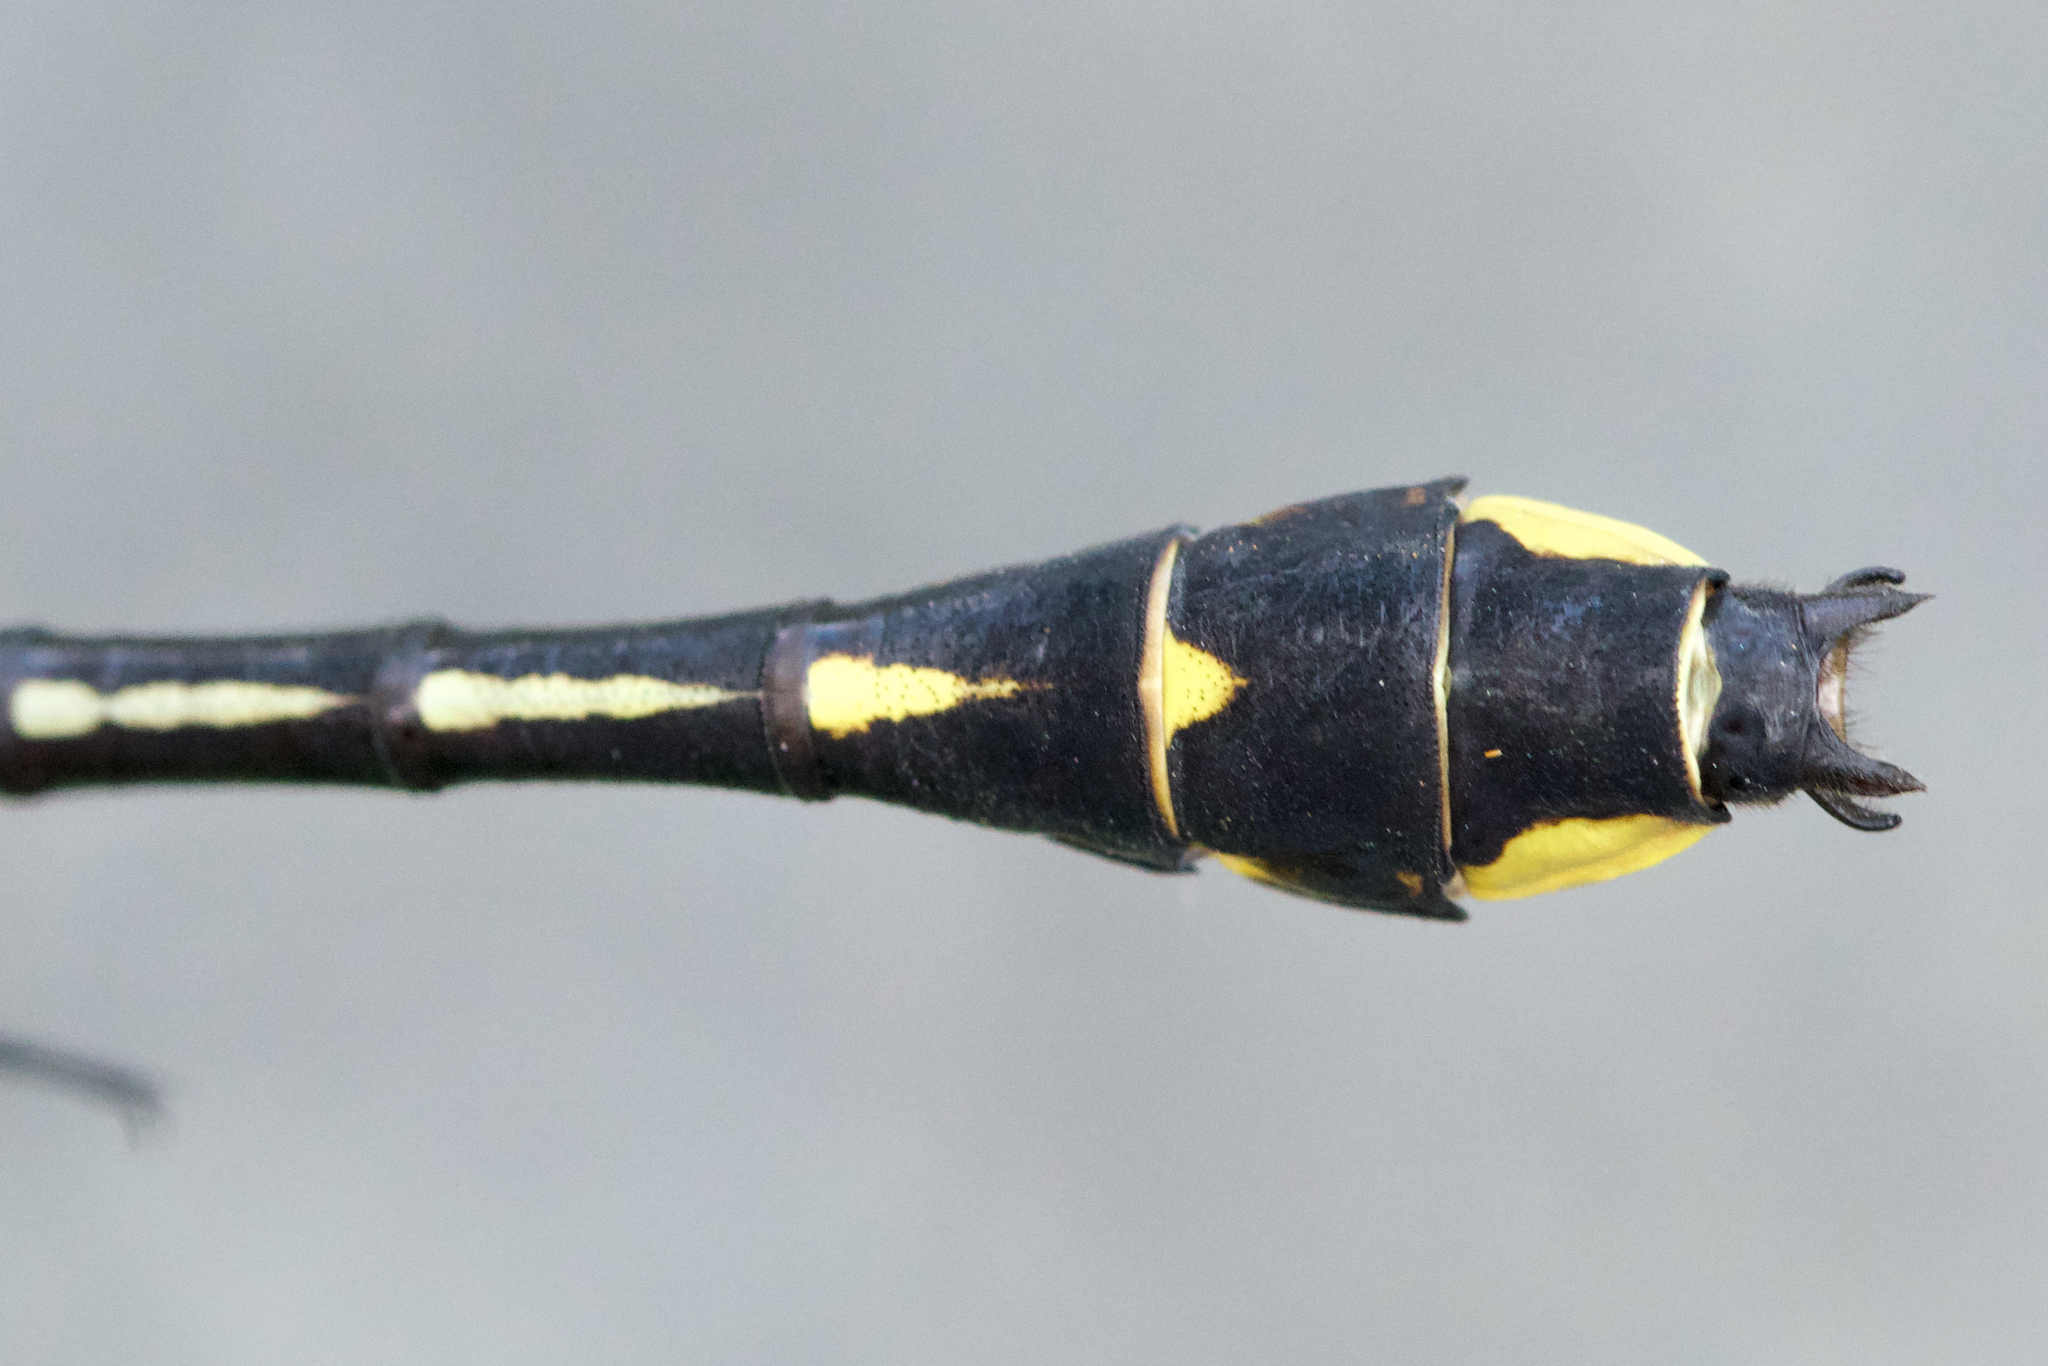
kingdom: Animalia
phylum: Arthropoda
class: Insecta
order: Odonata
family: Gomphidae
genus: Gomphurus
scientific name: Gomphurus fraternus
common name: Midland clubtail
